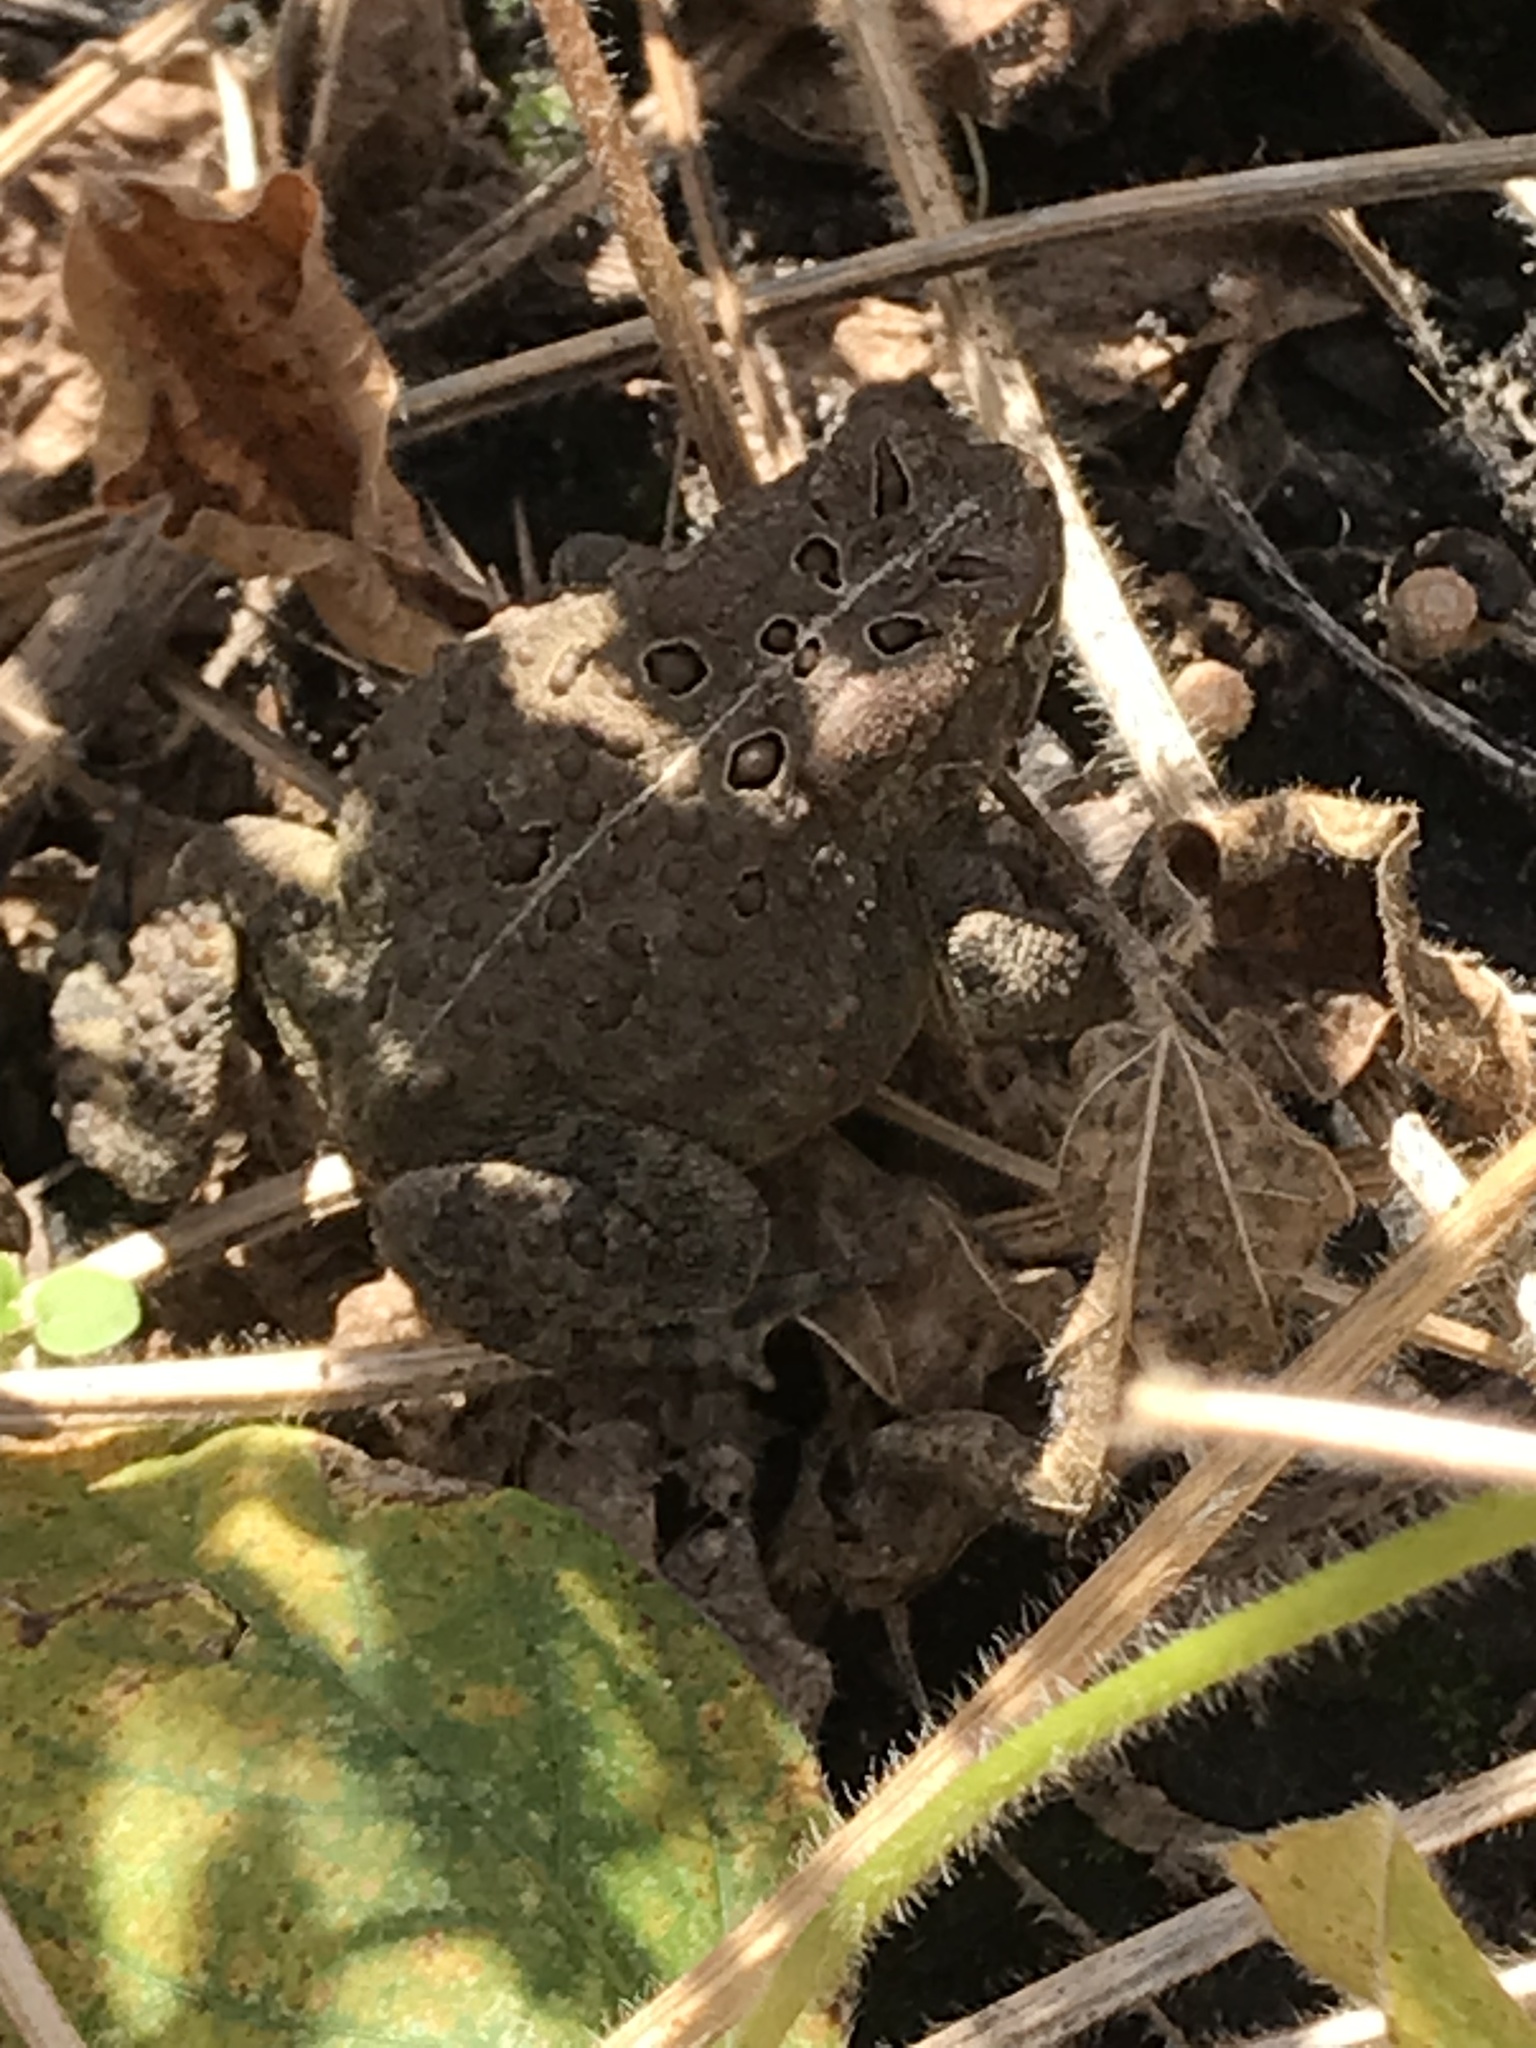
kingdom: Animalia
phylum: Chordata
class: Amphibia
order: Anura
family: Bufonidae
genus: Anaxyrus
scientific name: Anaxyrus americanus
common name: American toad
